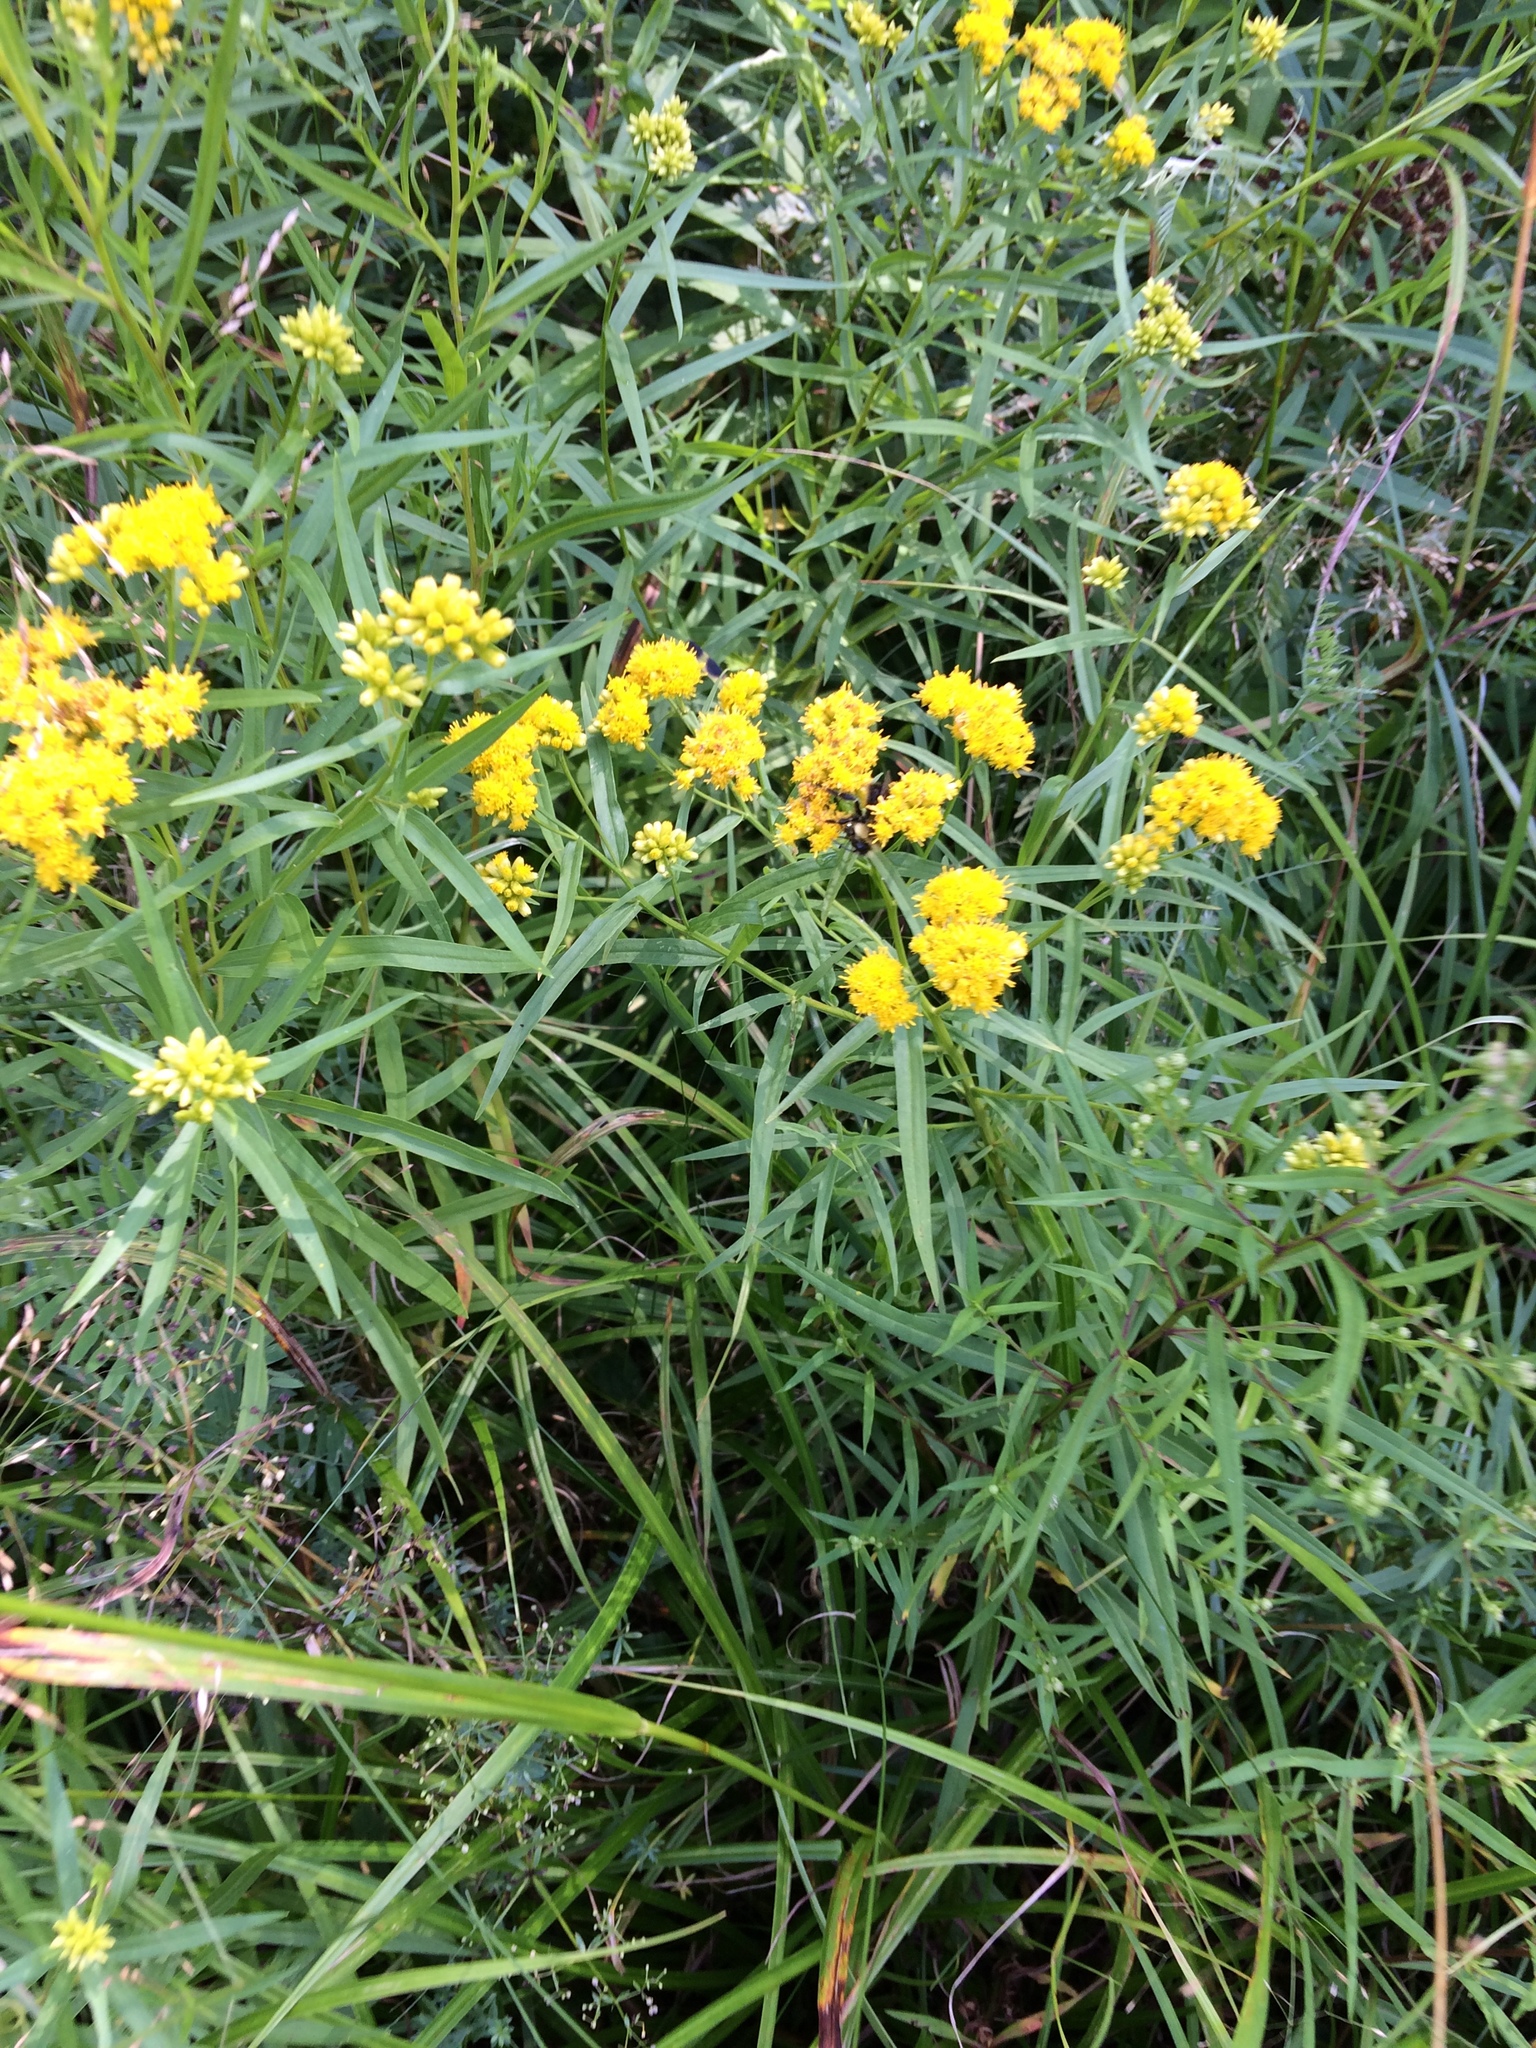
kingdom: Plantae
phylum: Tracheophyta
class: Magnoliopsida
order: Asterales
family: Asteraceae
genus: Euthamia
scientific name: Euthamia graminifolia
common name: Common goldentop
